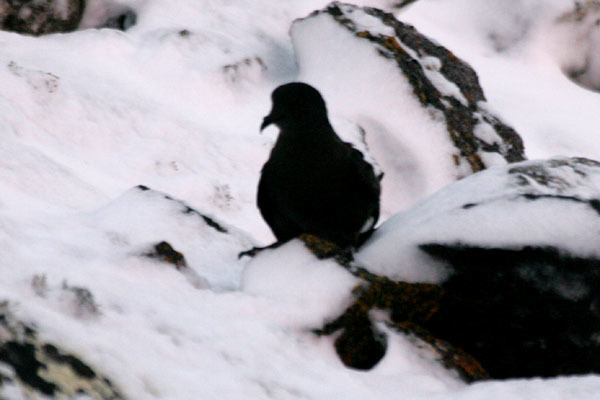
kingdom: Animalia
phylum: Chordata
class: Aves
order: Procellariiformes
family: Hydrobatidae
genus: Oceanites
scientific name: Oceanites oceanicus
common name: Wilson's storm petrel
